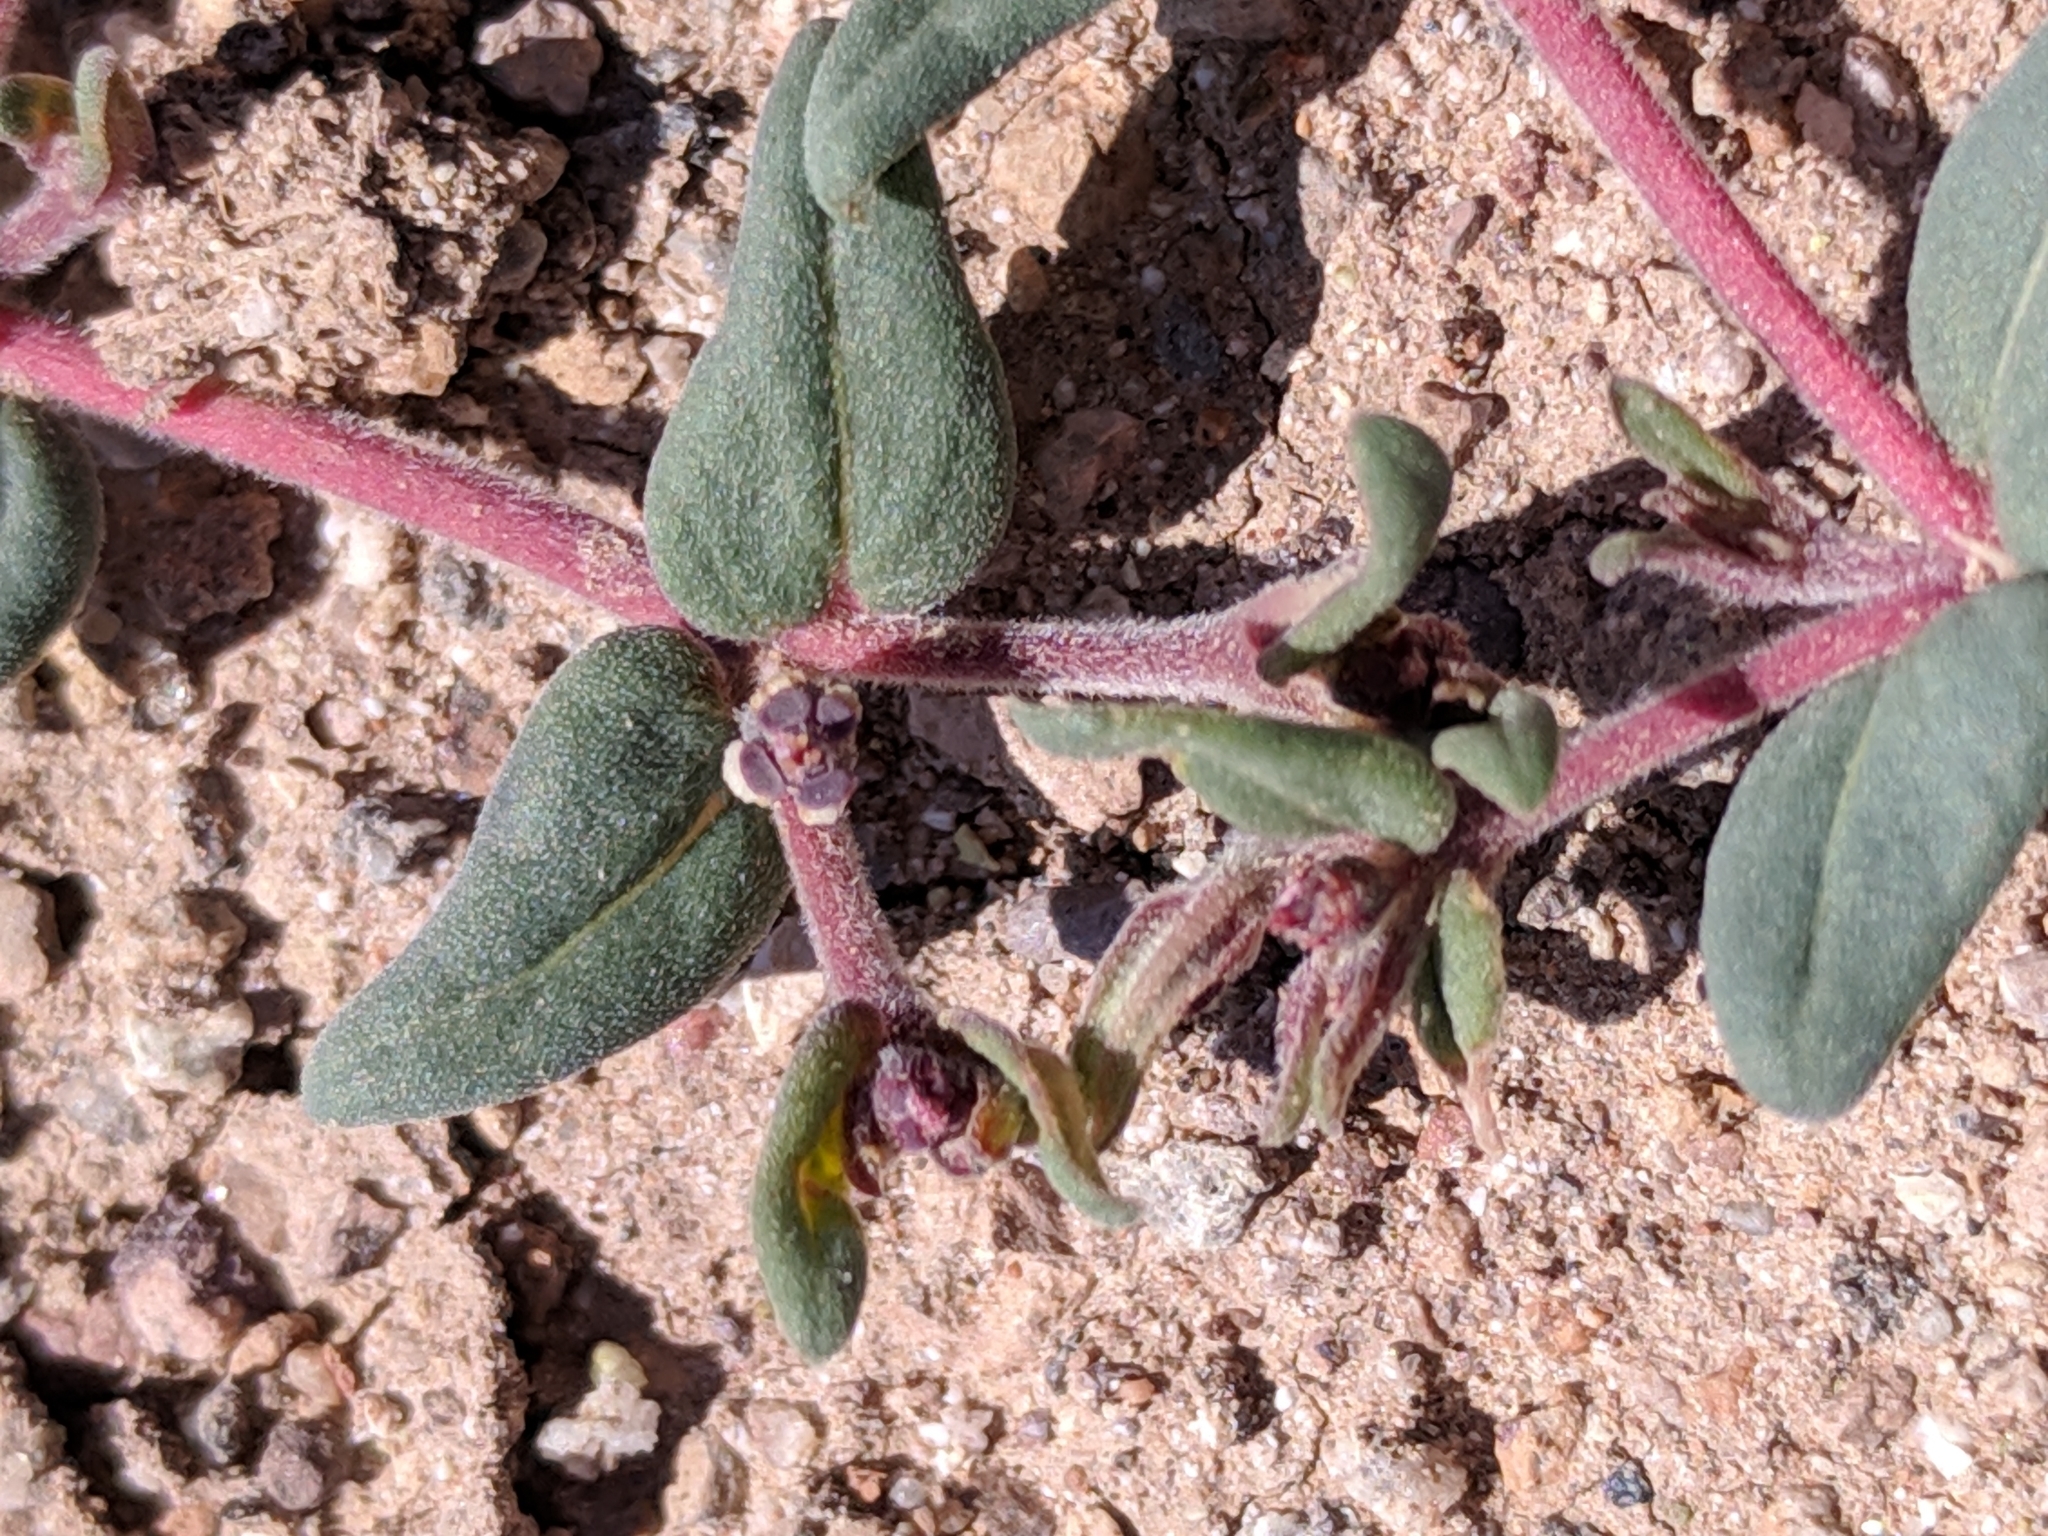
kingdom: Plantae
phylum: Tracheophyta
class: Magnoliopsida
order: Malpighiales
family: Euphorbiaceae
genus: Euphorbia
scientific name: Euphorbia lata
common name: Hoary euphorbia
